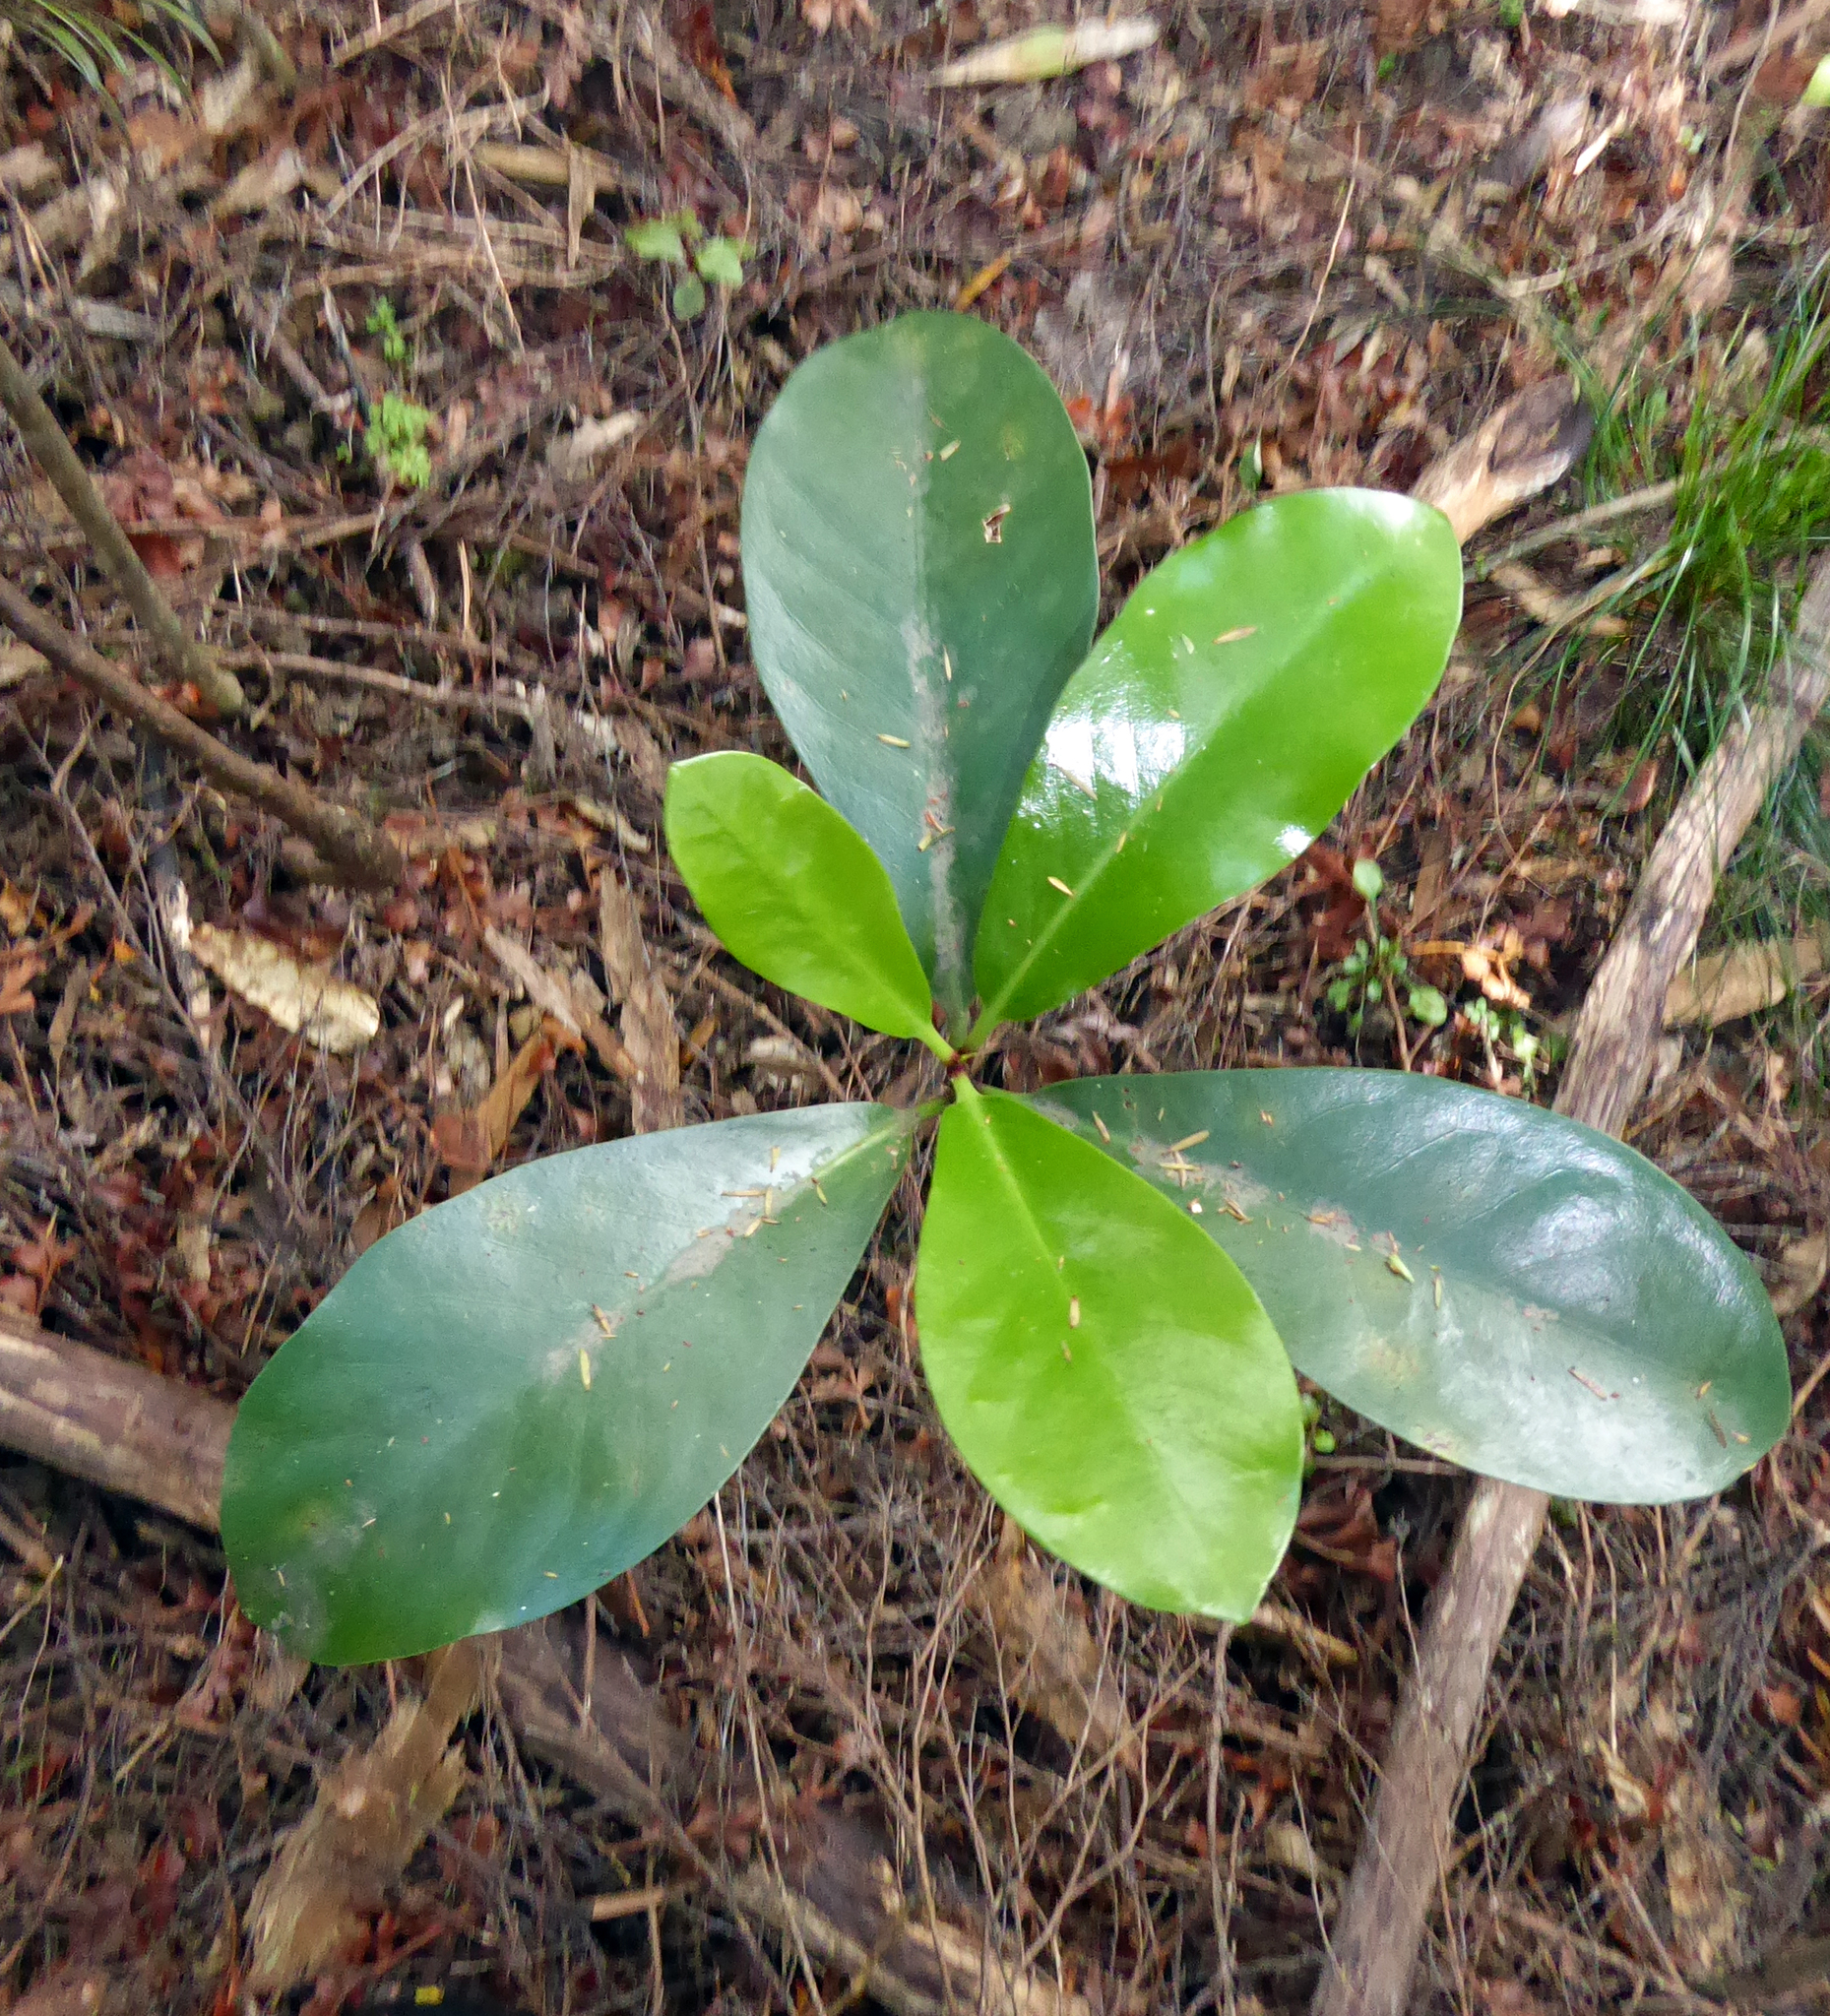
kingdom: Plantae
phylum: Tracheophyta
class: Magnoliopsida
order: Cucurbitales
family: Corynocarpaceae
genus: Corynocarpus
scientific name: Corynocarpus laevigatus
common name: New zealand laurel
